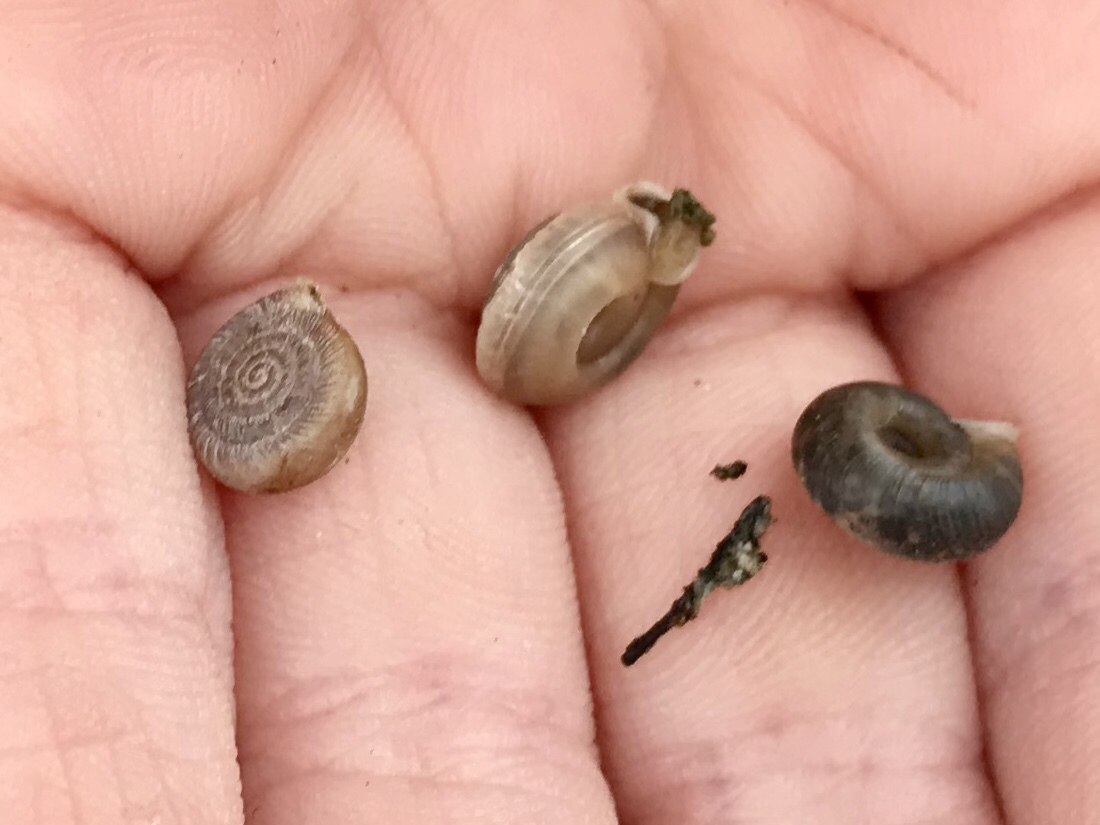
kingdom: Animalia
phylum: Mollusca
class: Gastropoda
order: Stylommatophora
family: Polygyridae
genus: Ashmunella
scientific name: Ashmunella levettei
